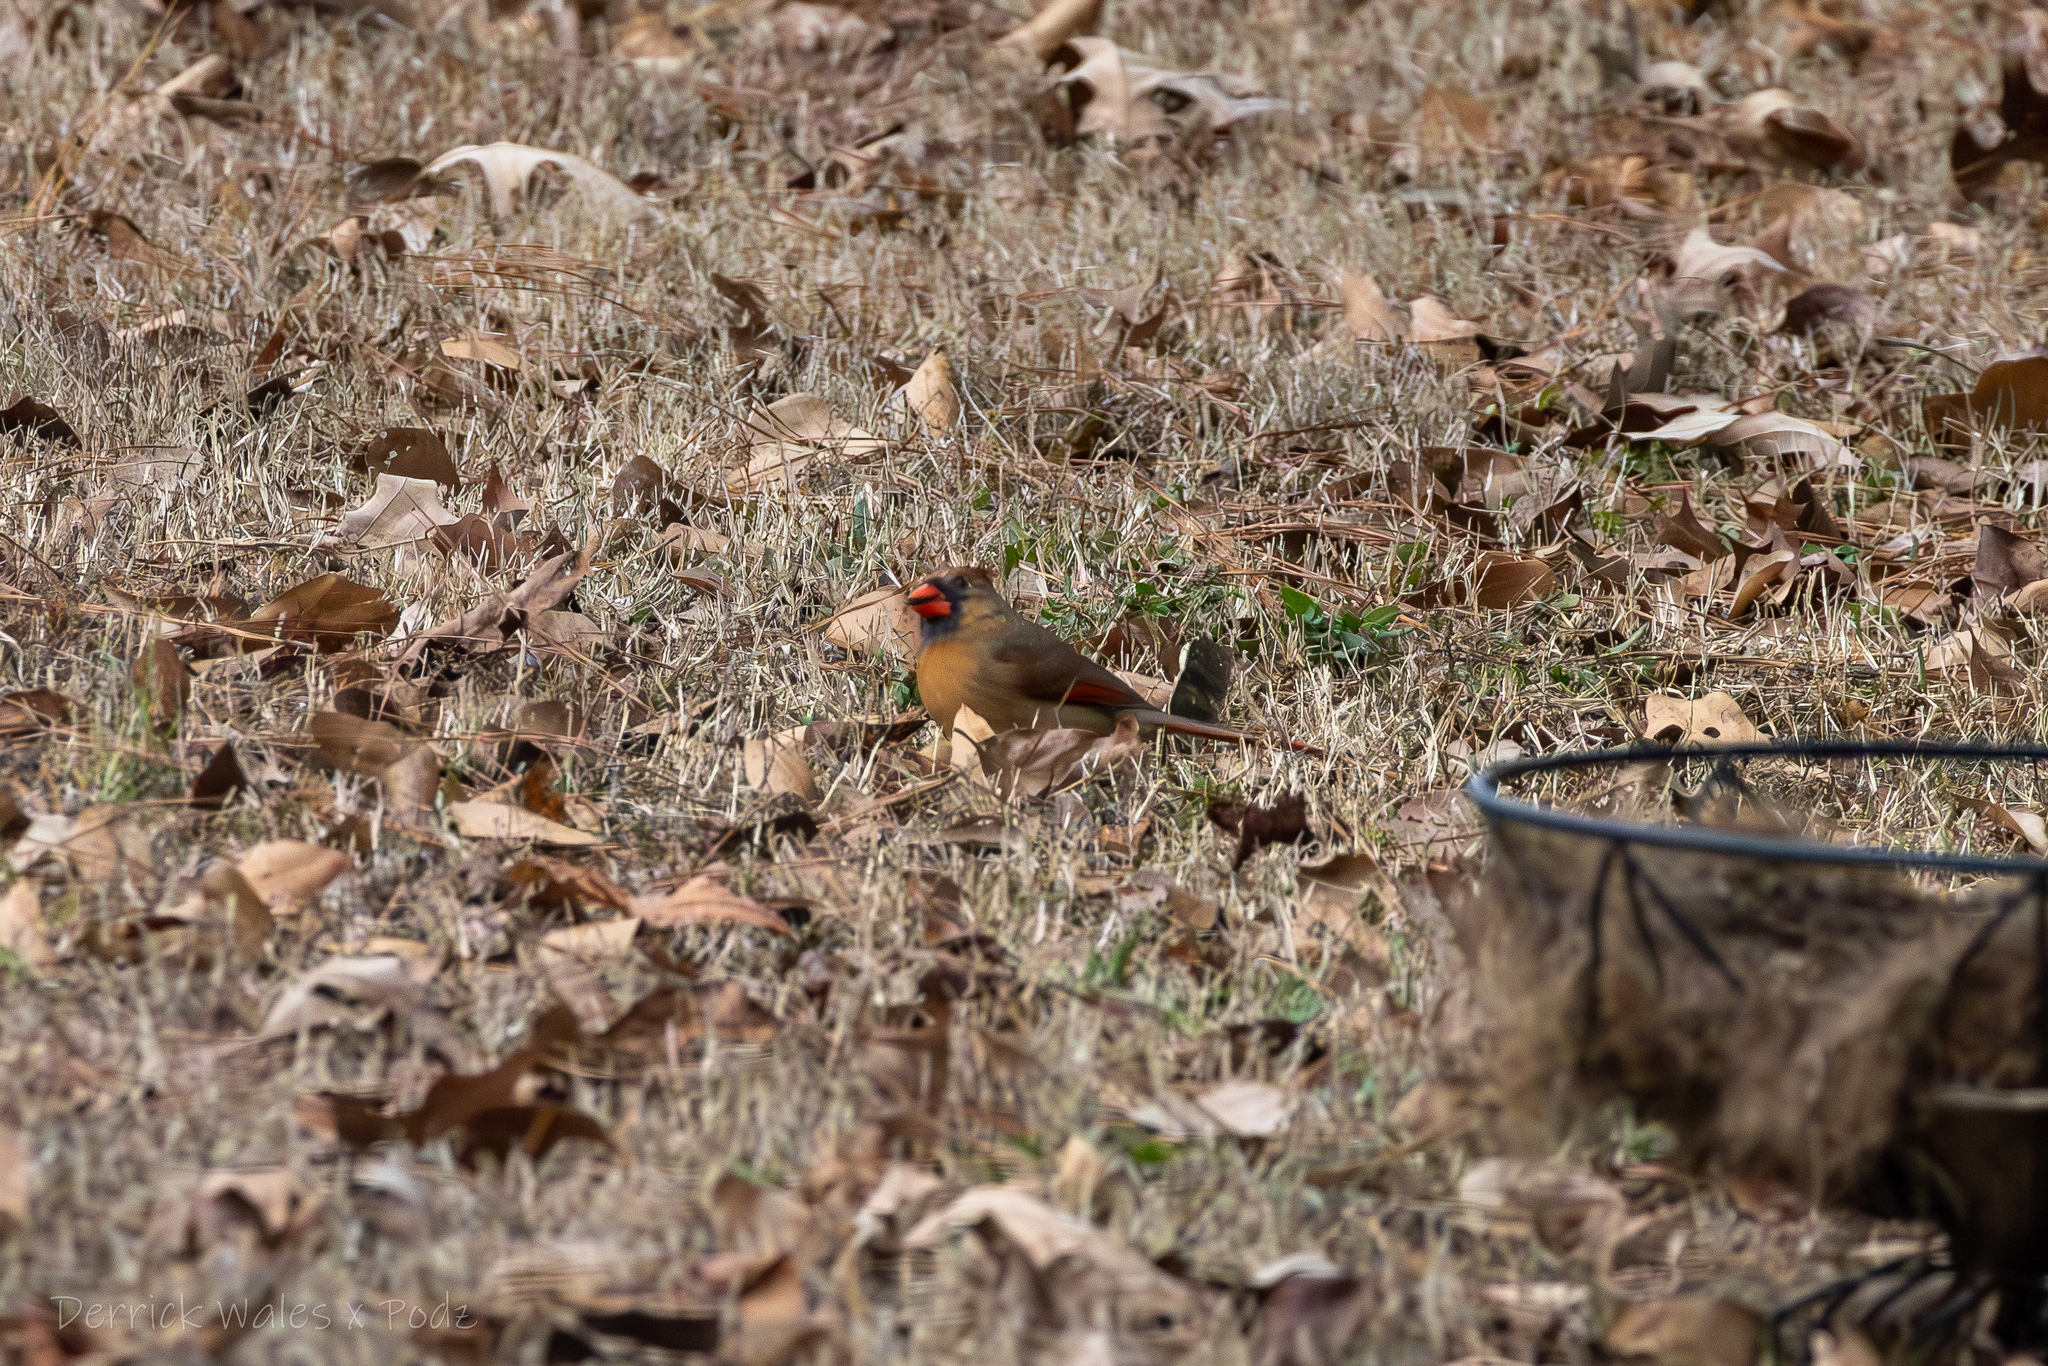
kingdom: Animalia
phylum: Chordata
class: Aves
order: Passeriformes
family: Cardinalidae
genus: Cardinalis
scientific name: Cardinalis cardinalis
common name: Northern cardinal
